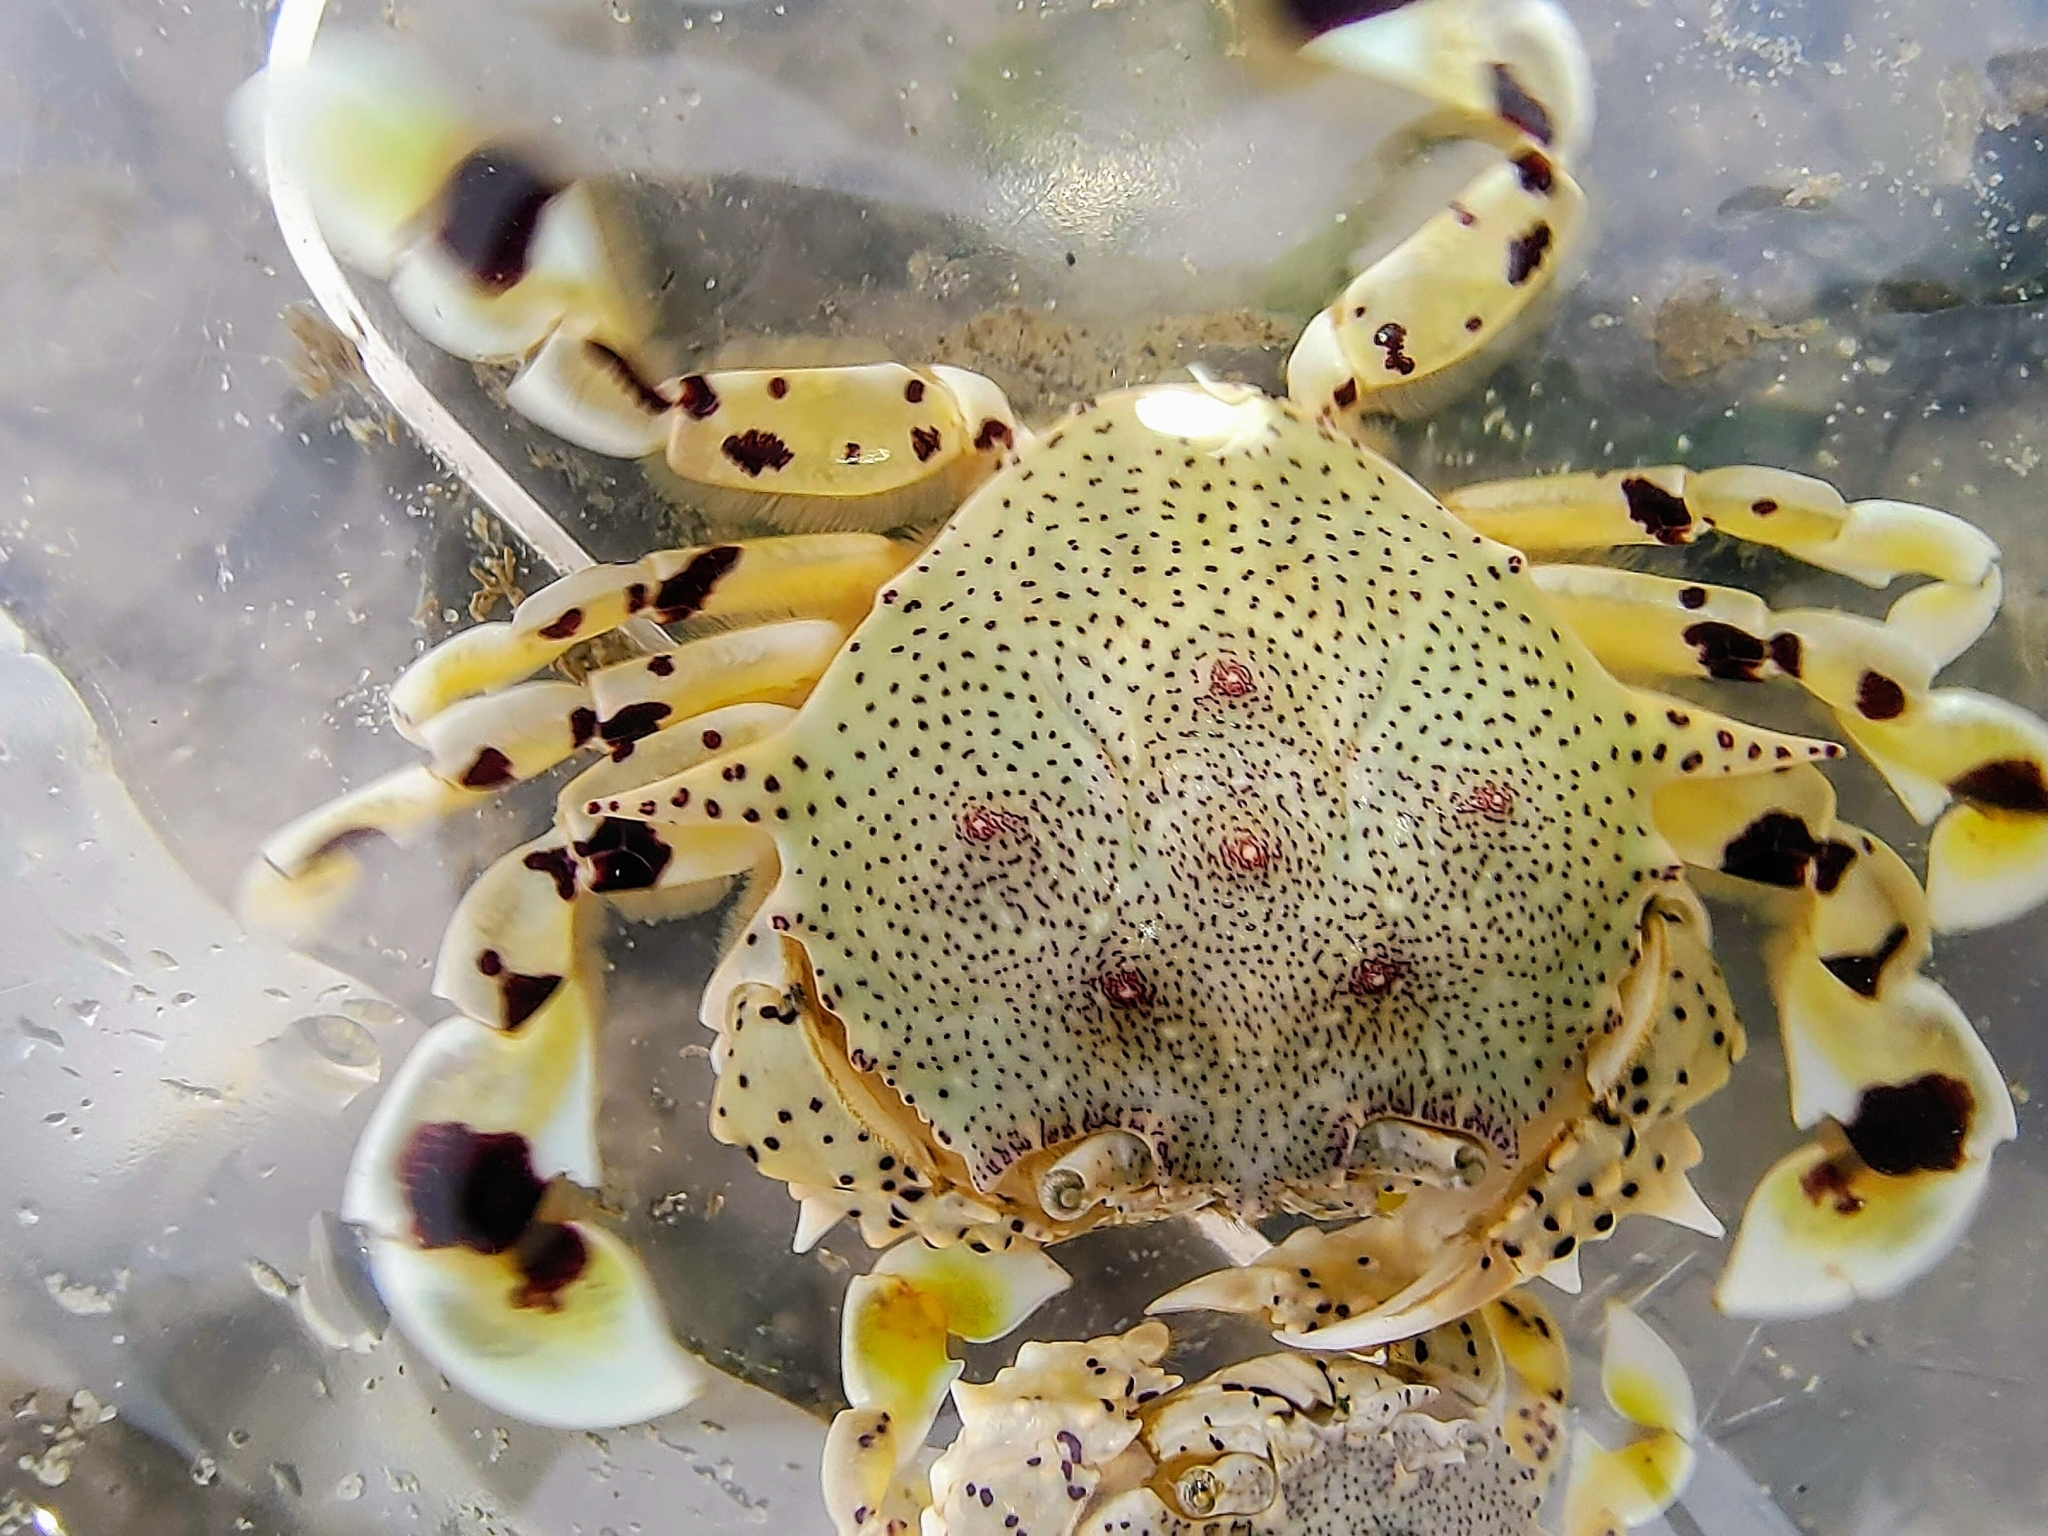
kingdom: Animalia
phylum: Arthropoda
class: Malacostraca
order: Decapoda
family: Matutidae
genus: Ashtoret
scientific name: Ashtoret lunaris
